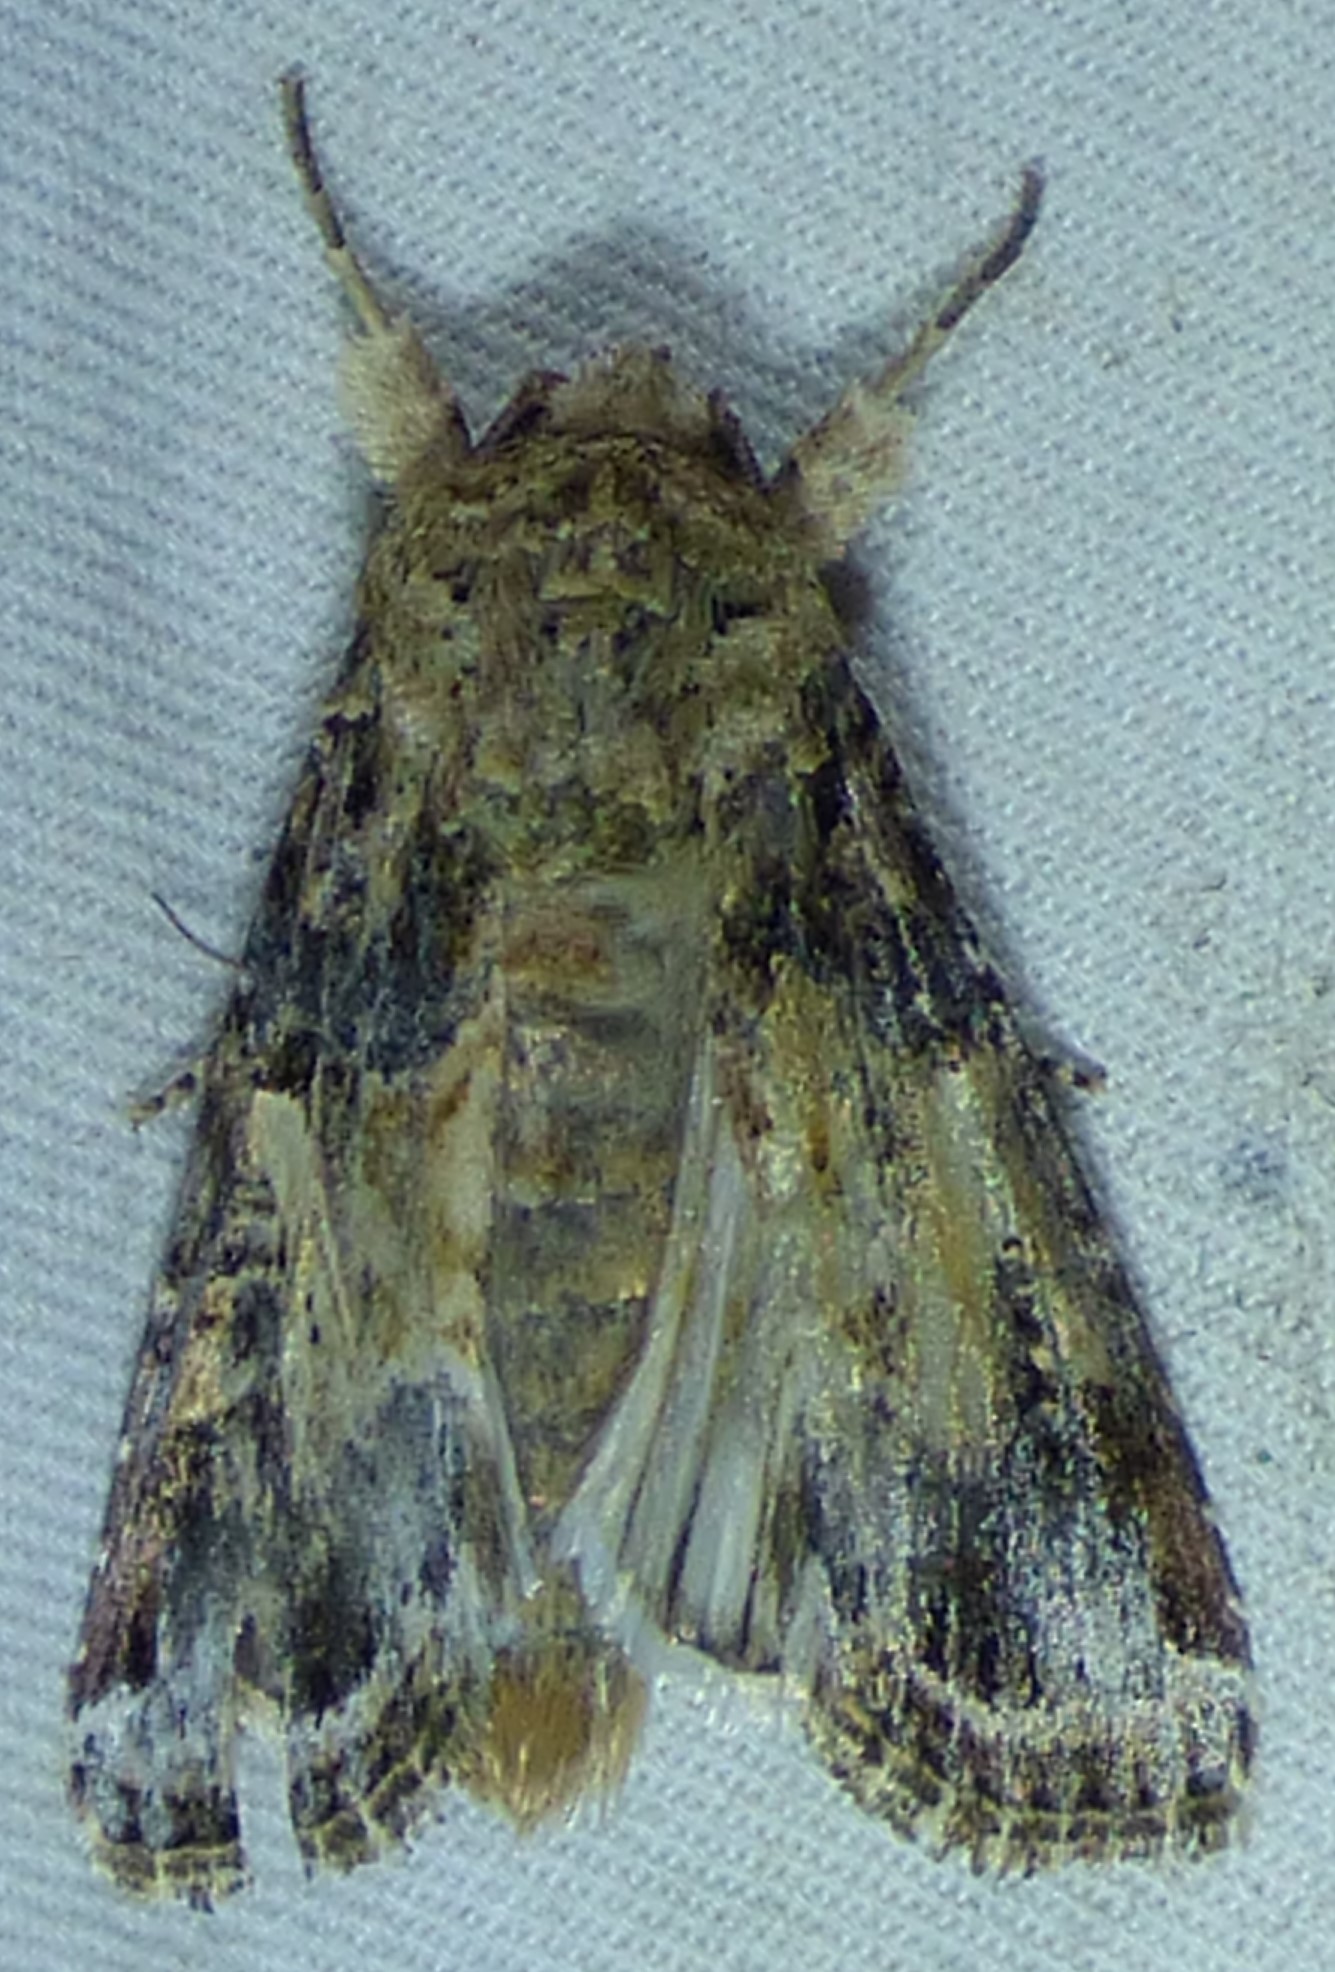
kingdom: Animalia
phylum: Arthropoda
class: Insecta
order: Lepidoptera
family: Noctuidae
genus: Spodoptera
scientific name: Spodoptera ornithogalli
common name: Yellow-striped armyworm
